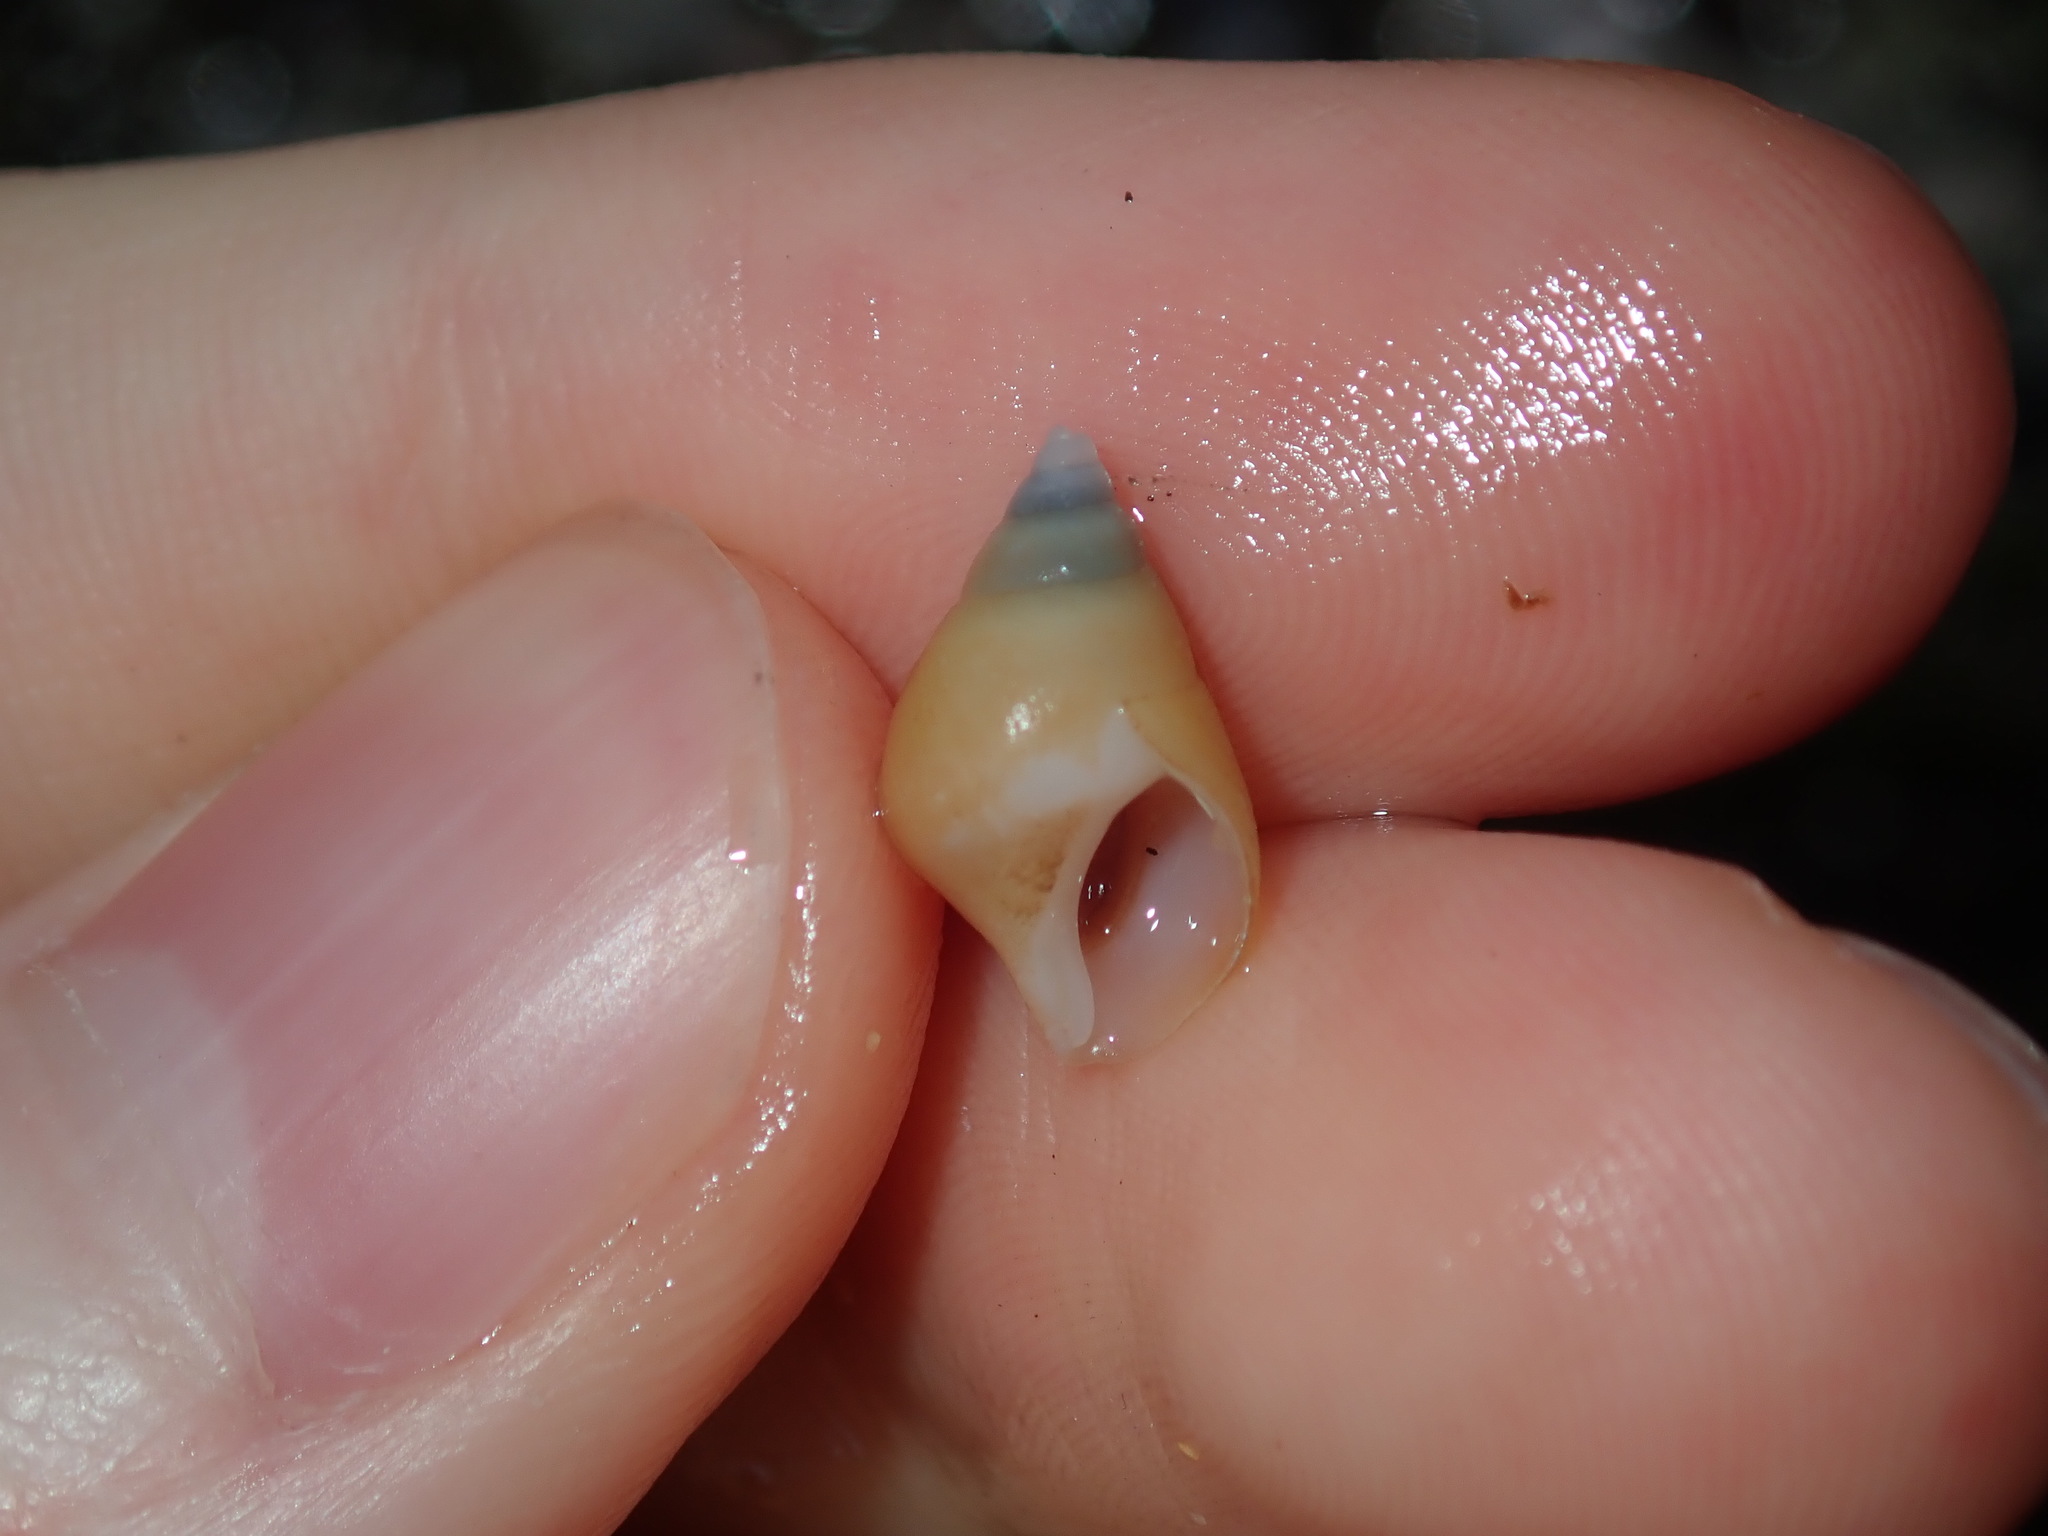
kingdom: Animalia
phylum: Mollusca
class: Gastropoda
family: Planaxidae
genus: Hinea
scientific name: Hinea brasiliana
